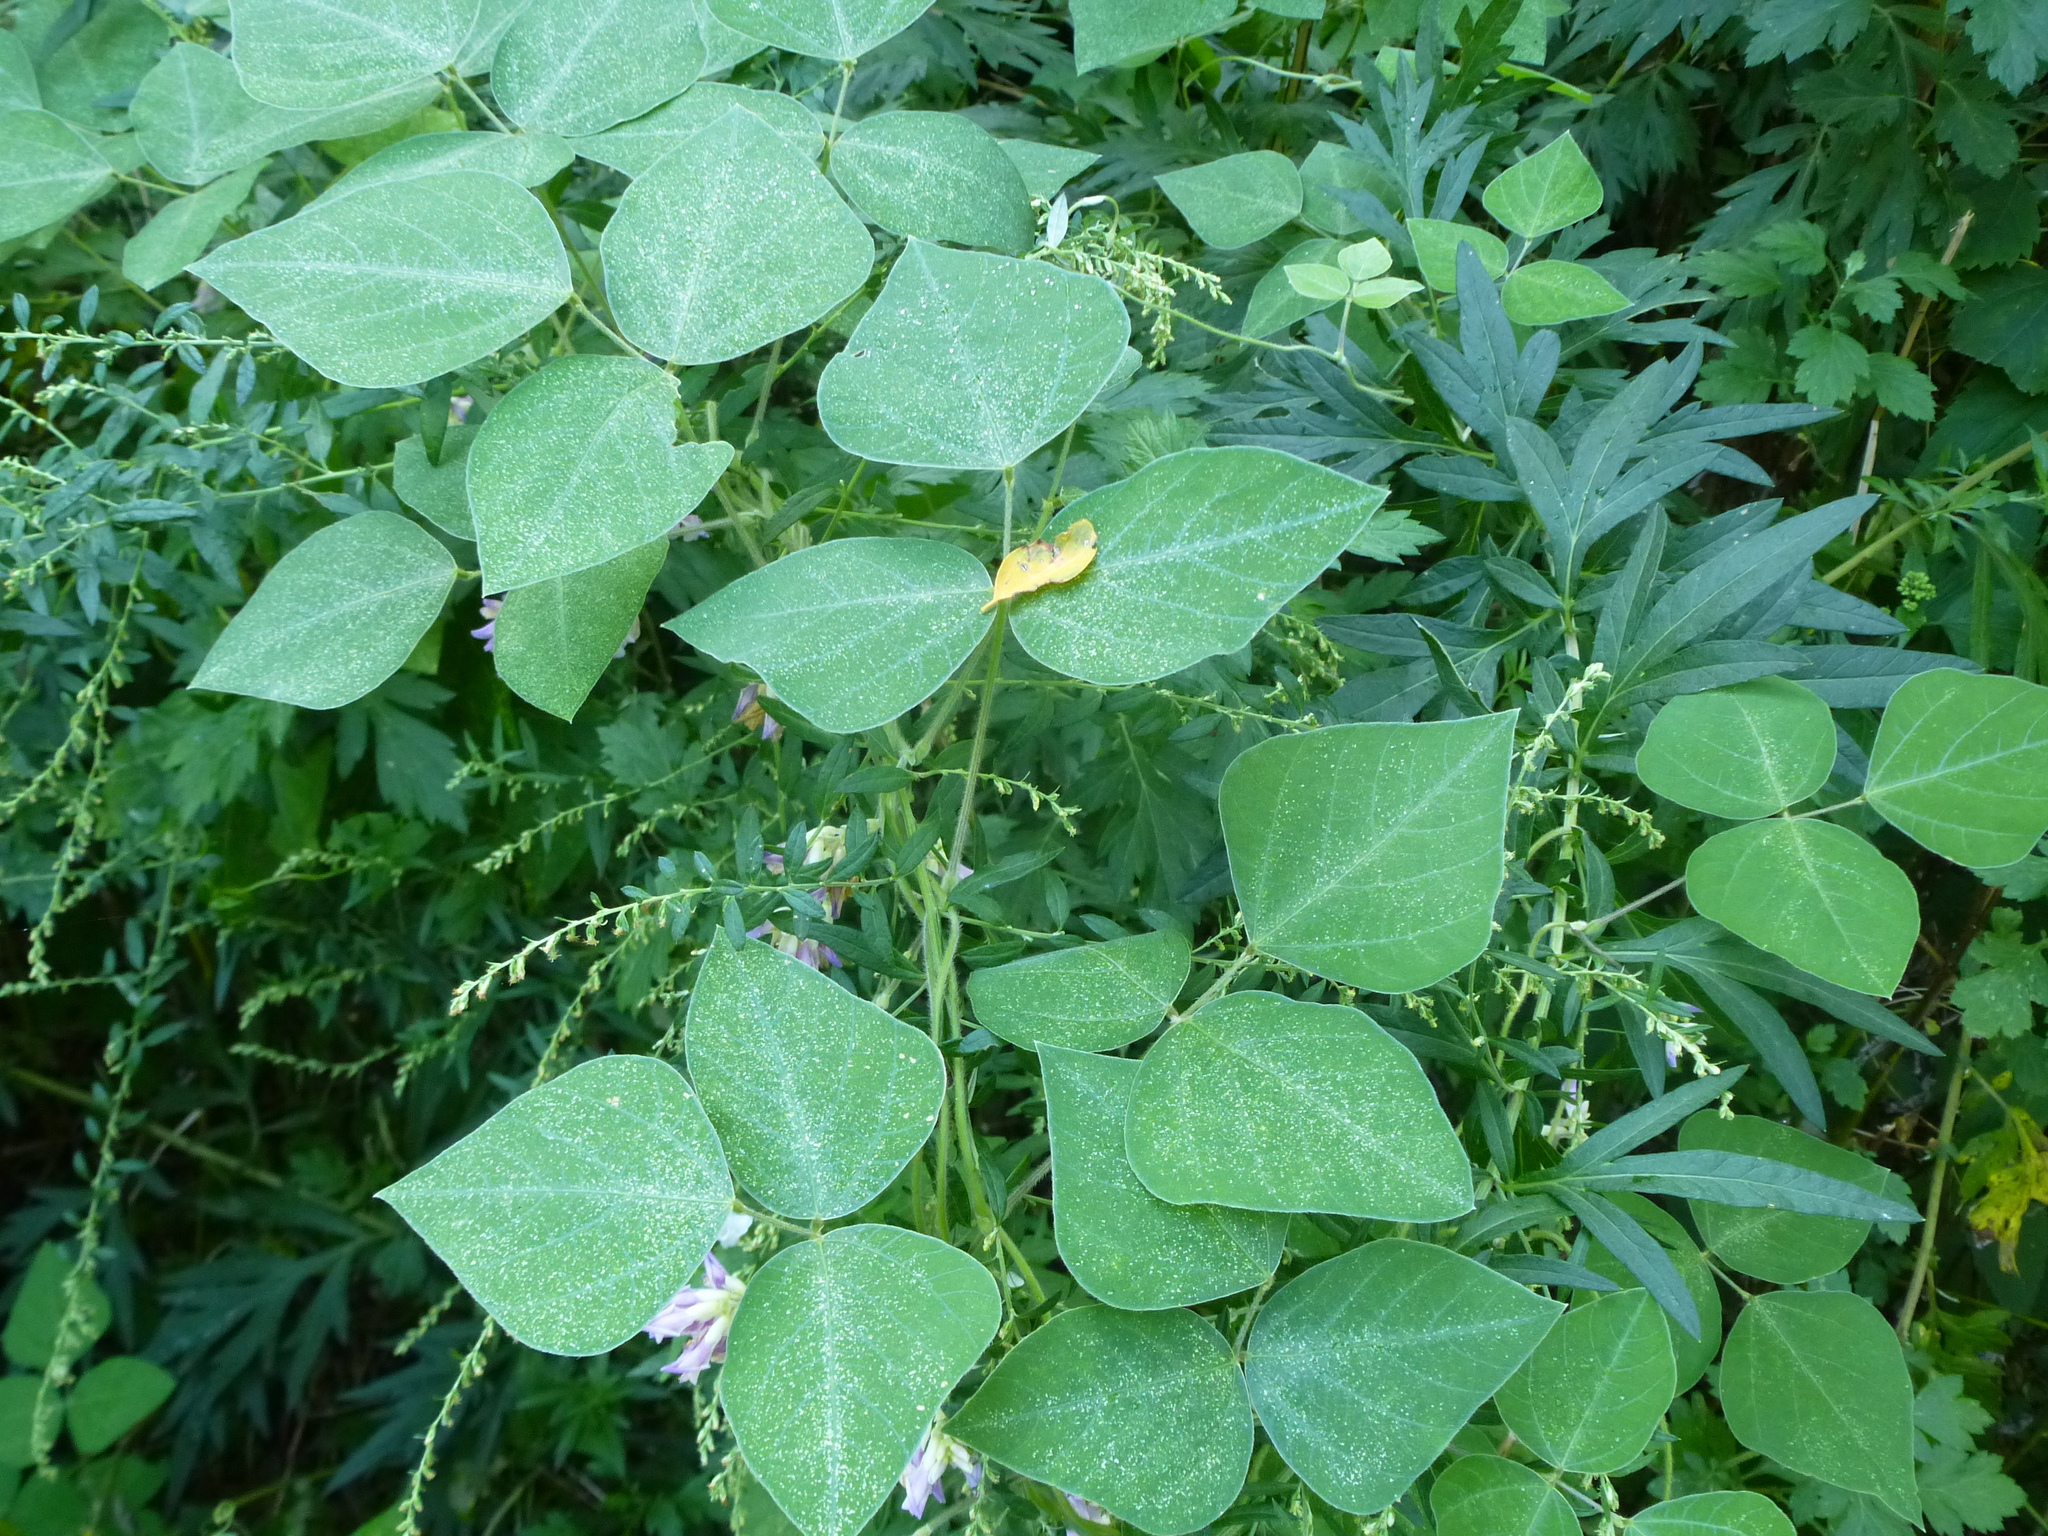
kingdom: Plantae
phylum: Tracheophyta
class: Magnoliopsida
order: Fabales
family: Fabaceae
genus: Amphicarpaea
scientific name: Amphicarpaea bracteata
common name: American hog peanut
